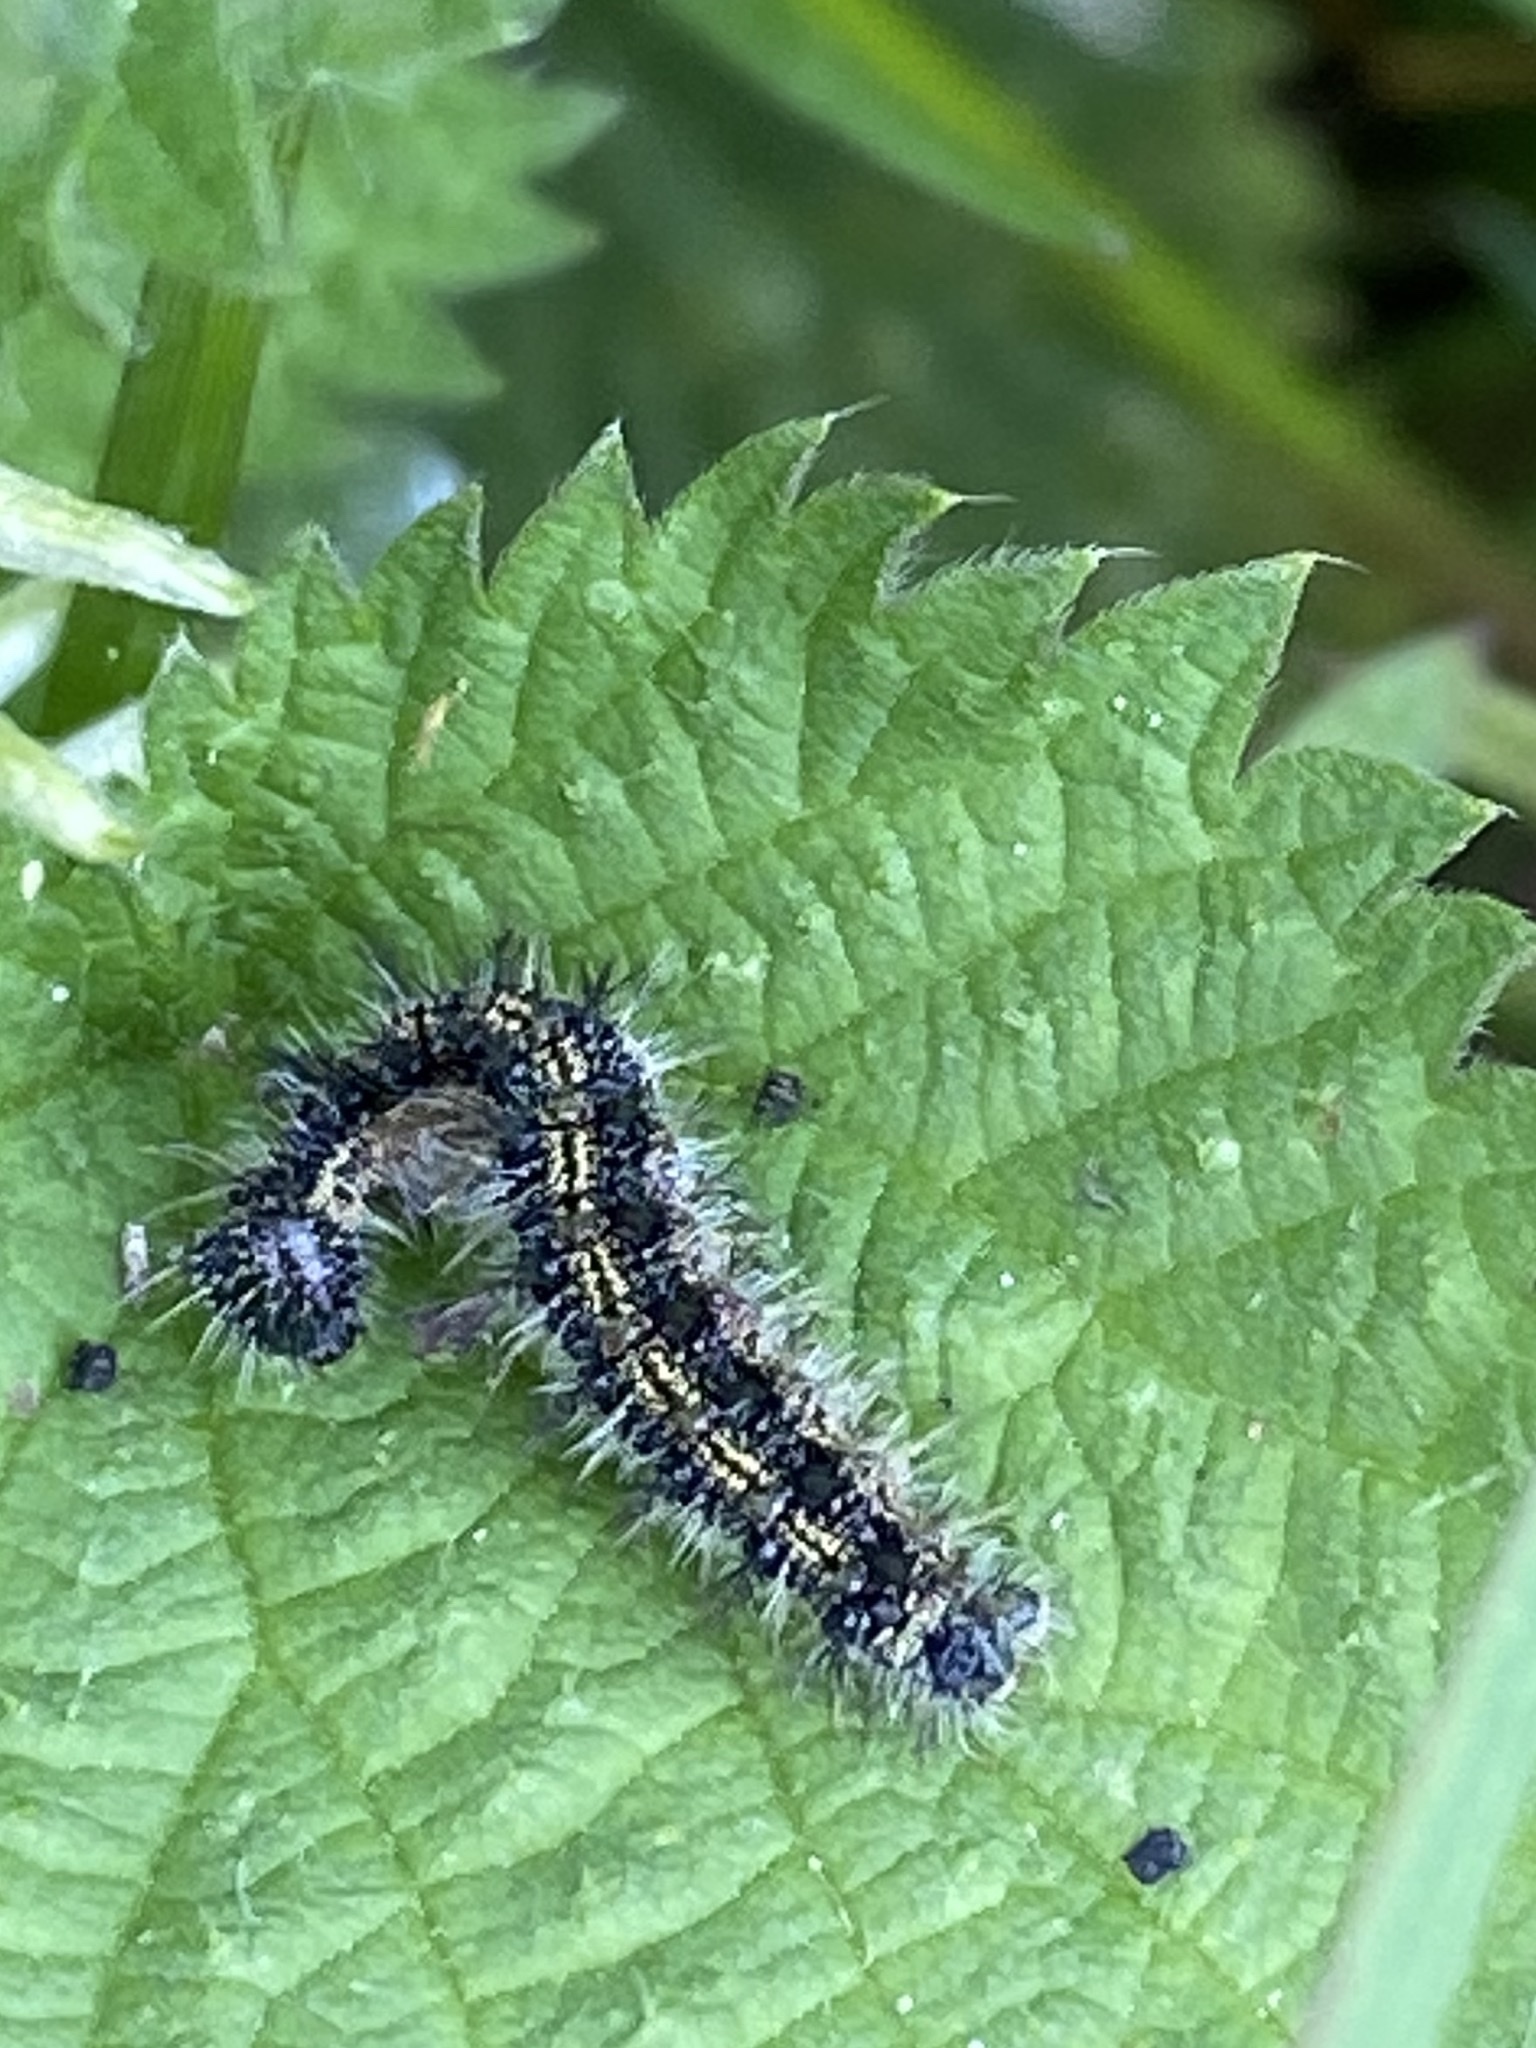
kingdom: Animalia
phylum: Arthropoda
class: Insecta
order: Lepidoptera
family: Nymphalidae
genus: Aglais
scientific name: Aglais urticae
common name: Small tortoiseshell
